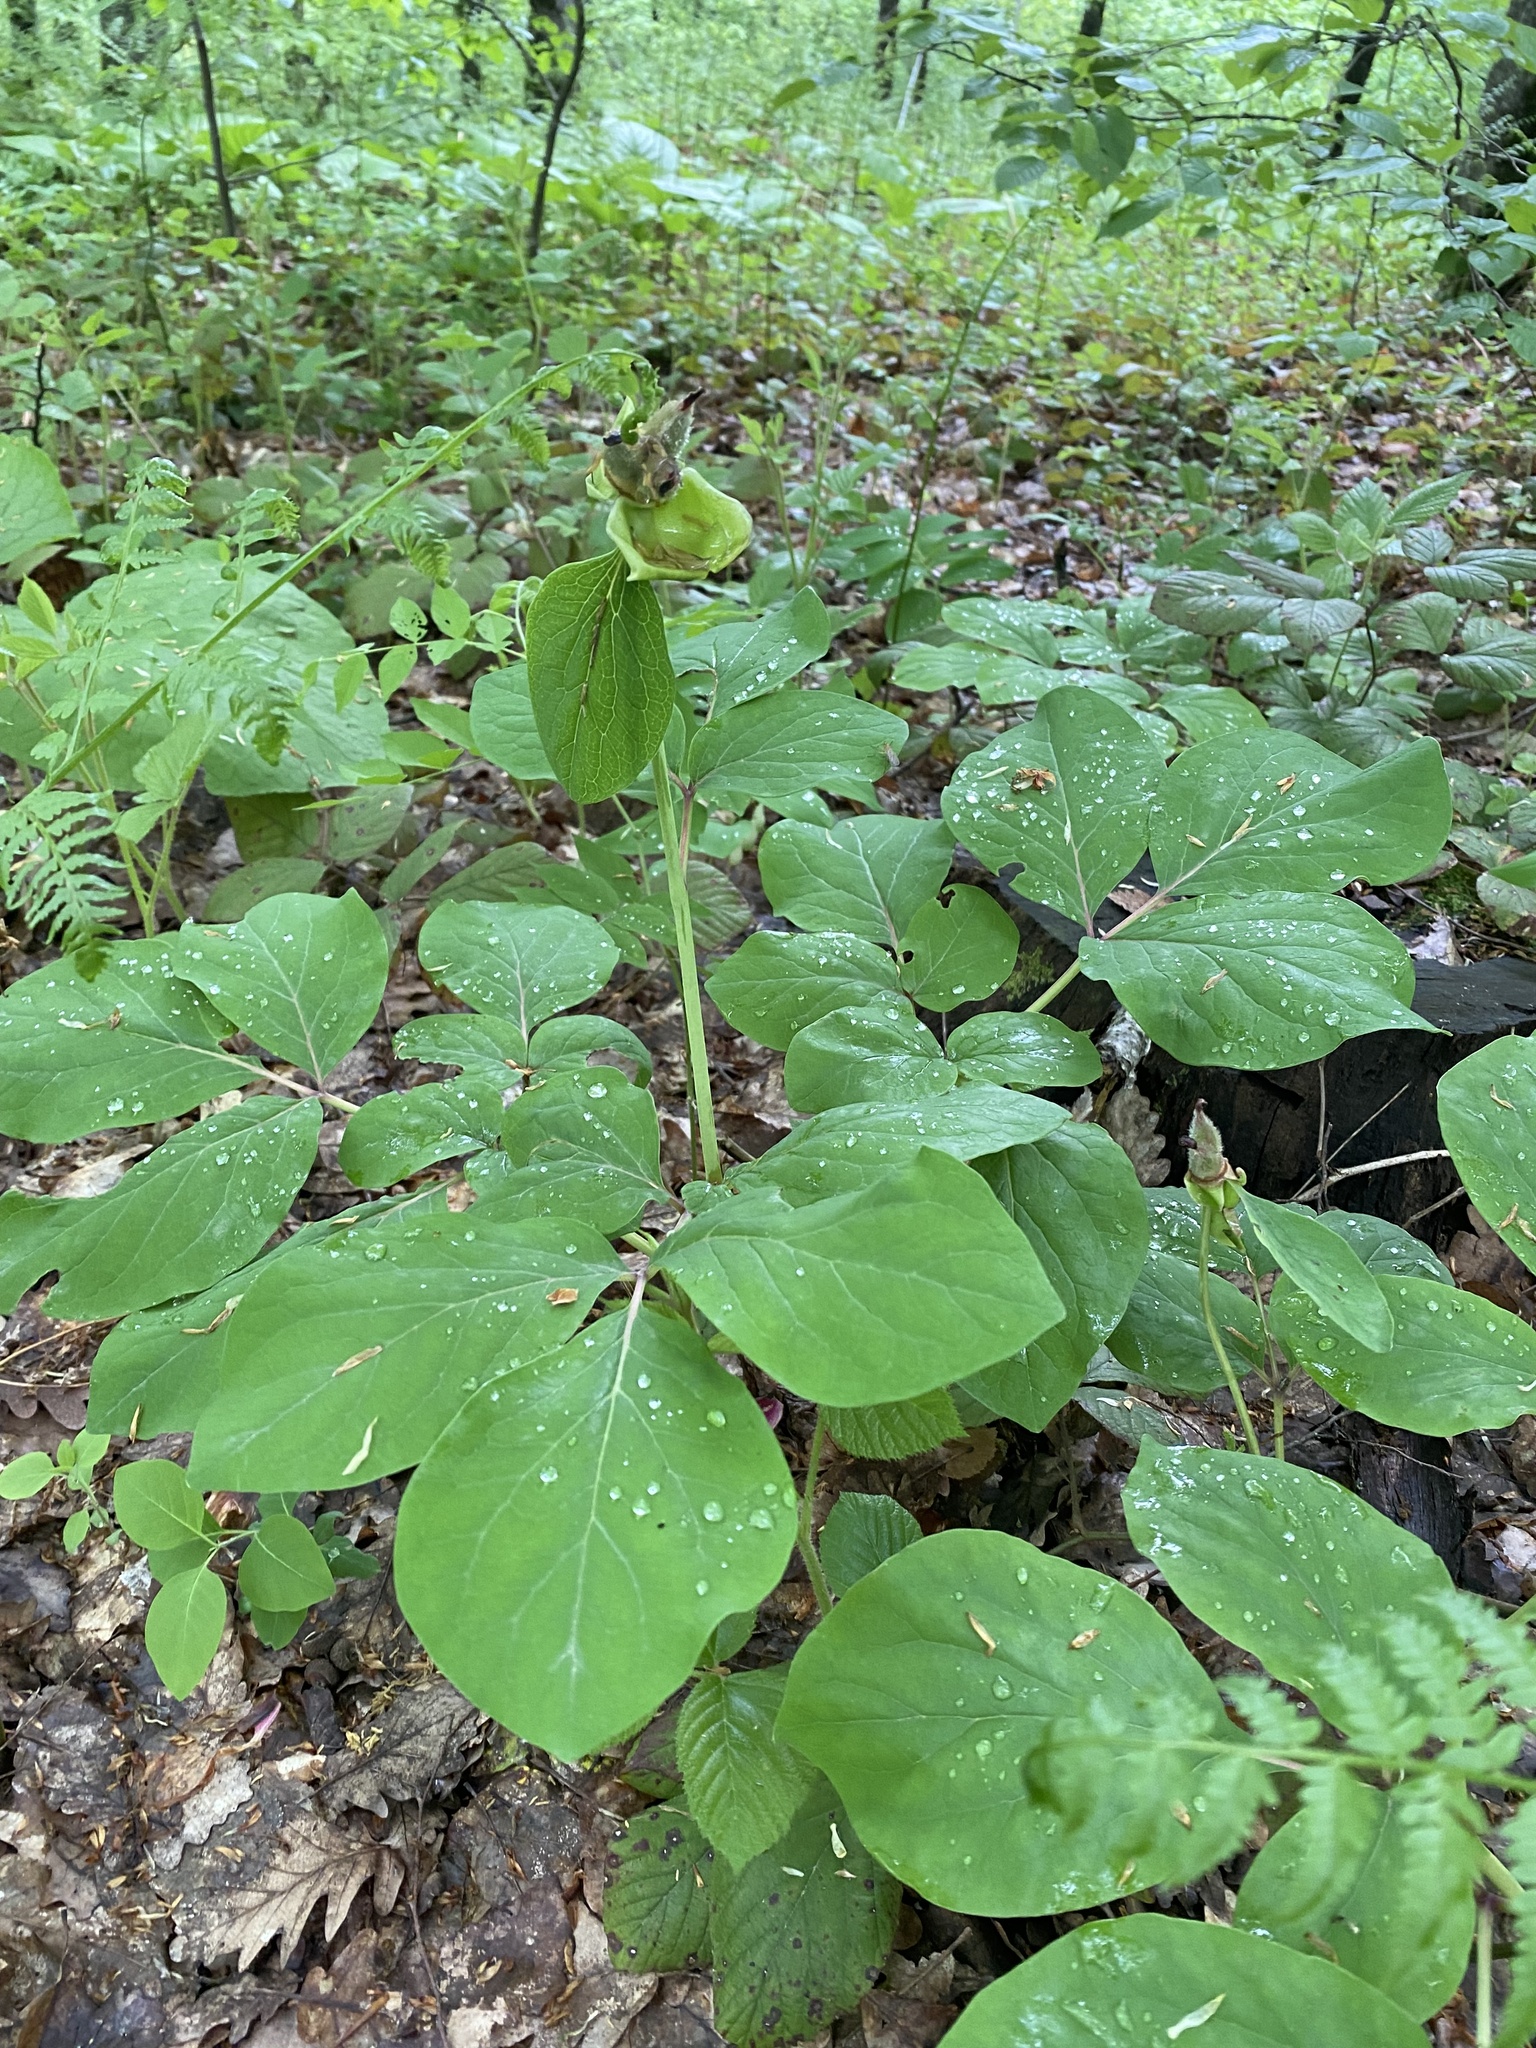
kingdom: Plantae
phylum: Tracheophyta
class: Magnoliopsida
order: Saxifragales
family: Paeoniaceae
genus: Paeonia
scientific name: Paeonia caucasica
